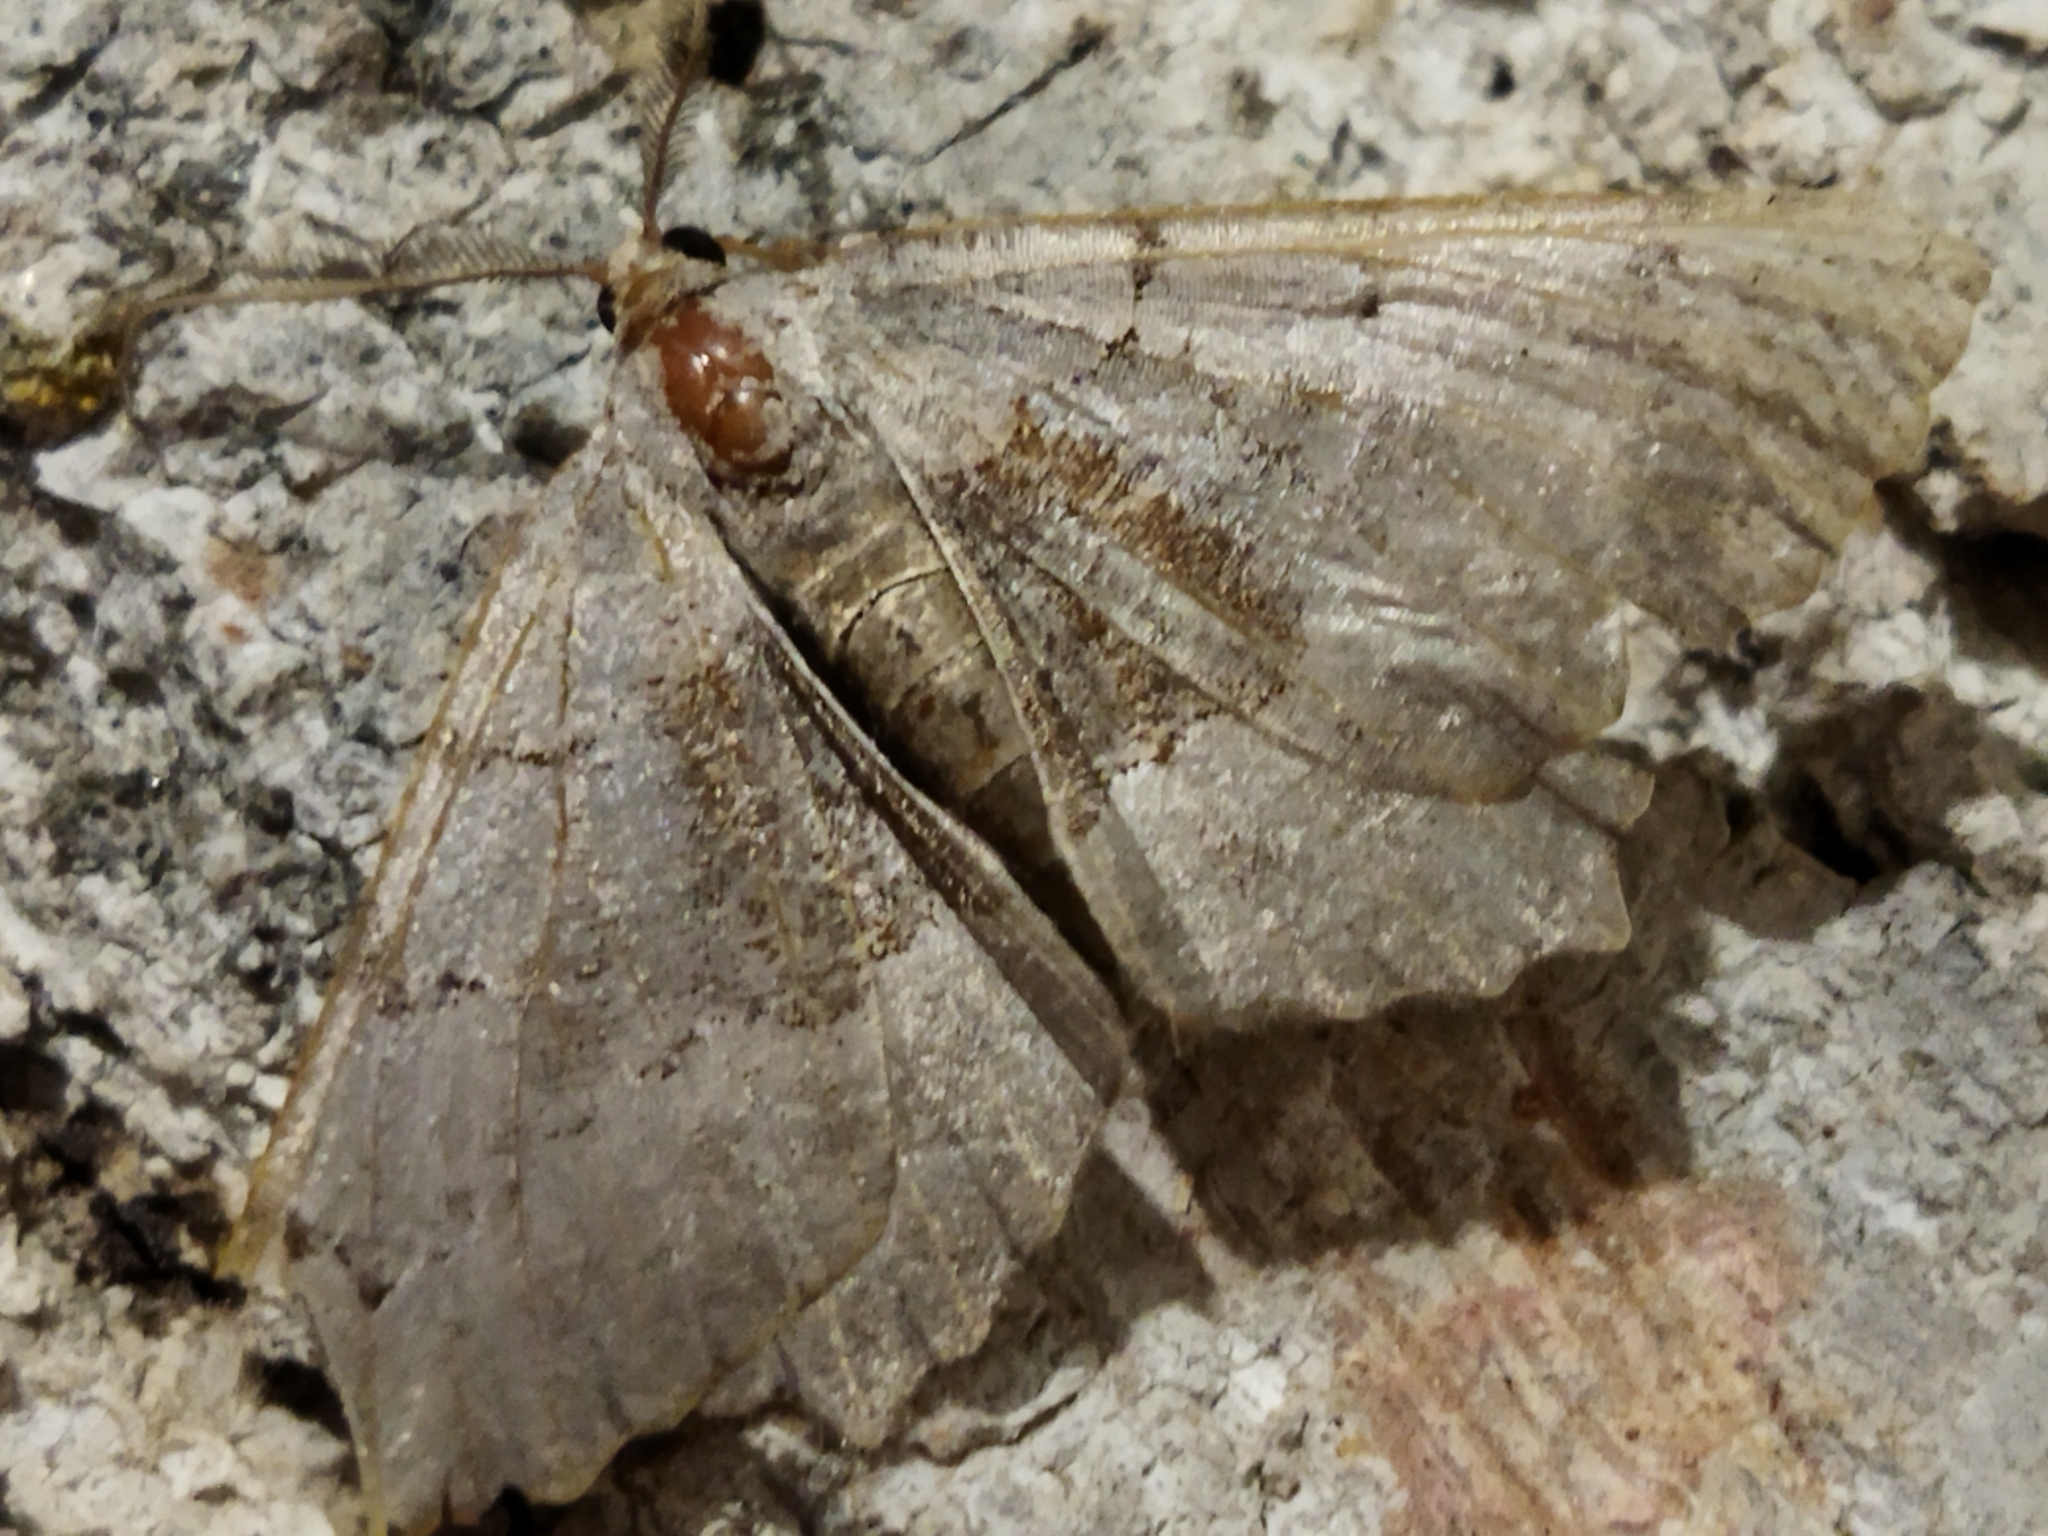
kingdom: Animalia
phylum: Arthropoda
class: Insecta
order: Lepidoptera
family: Geometridae
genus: Neognopharmia
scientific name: Neognopharmia stevenaria
